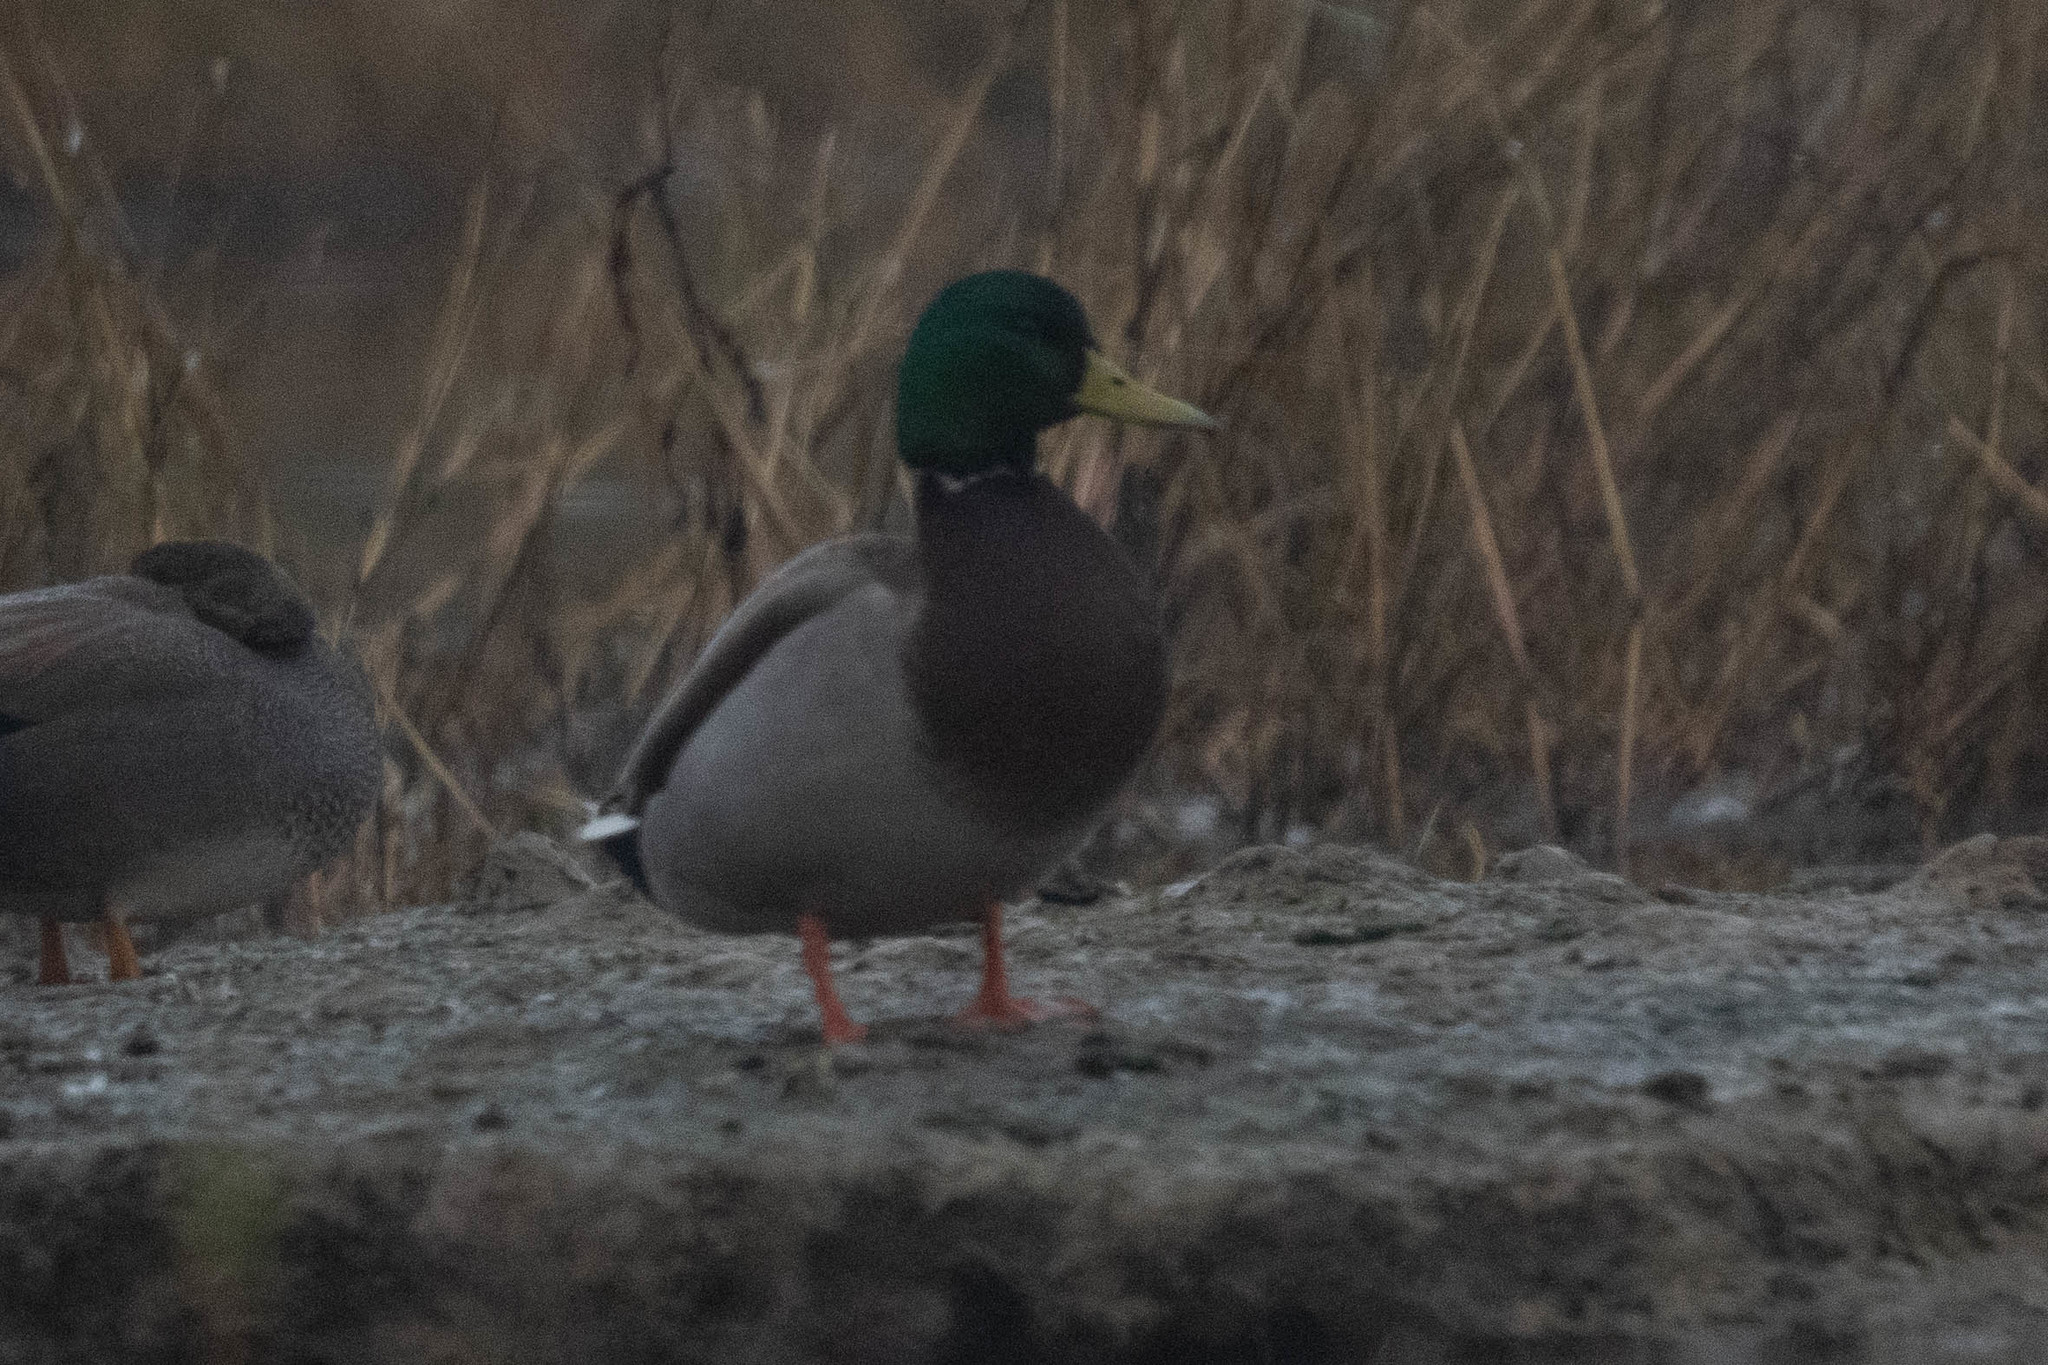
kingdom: Animalia
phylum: Chordata
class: Aves
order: Anseriformes
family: Anatidae
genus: Anas
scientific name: Anas platyrhynchos
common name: Mallard
